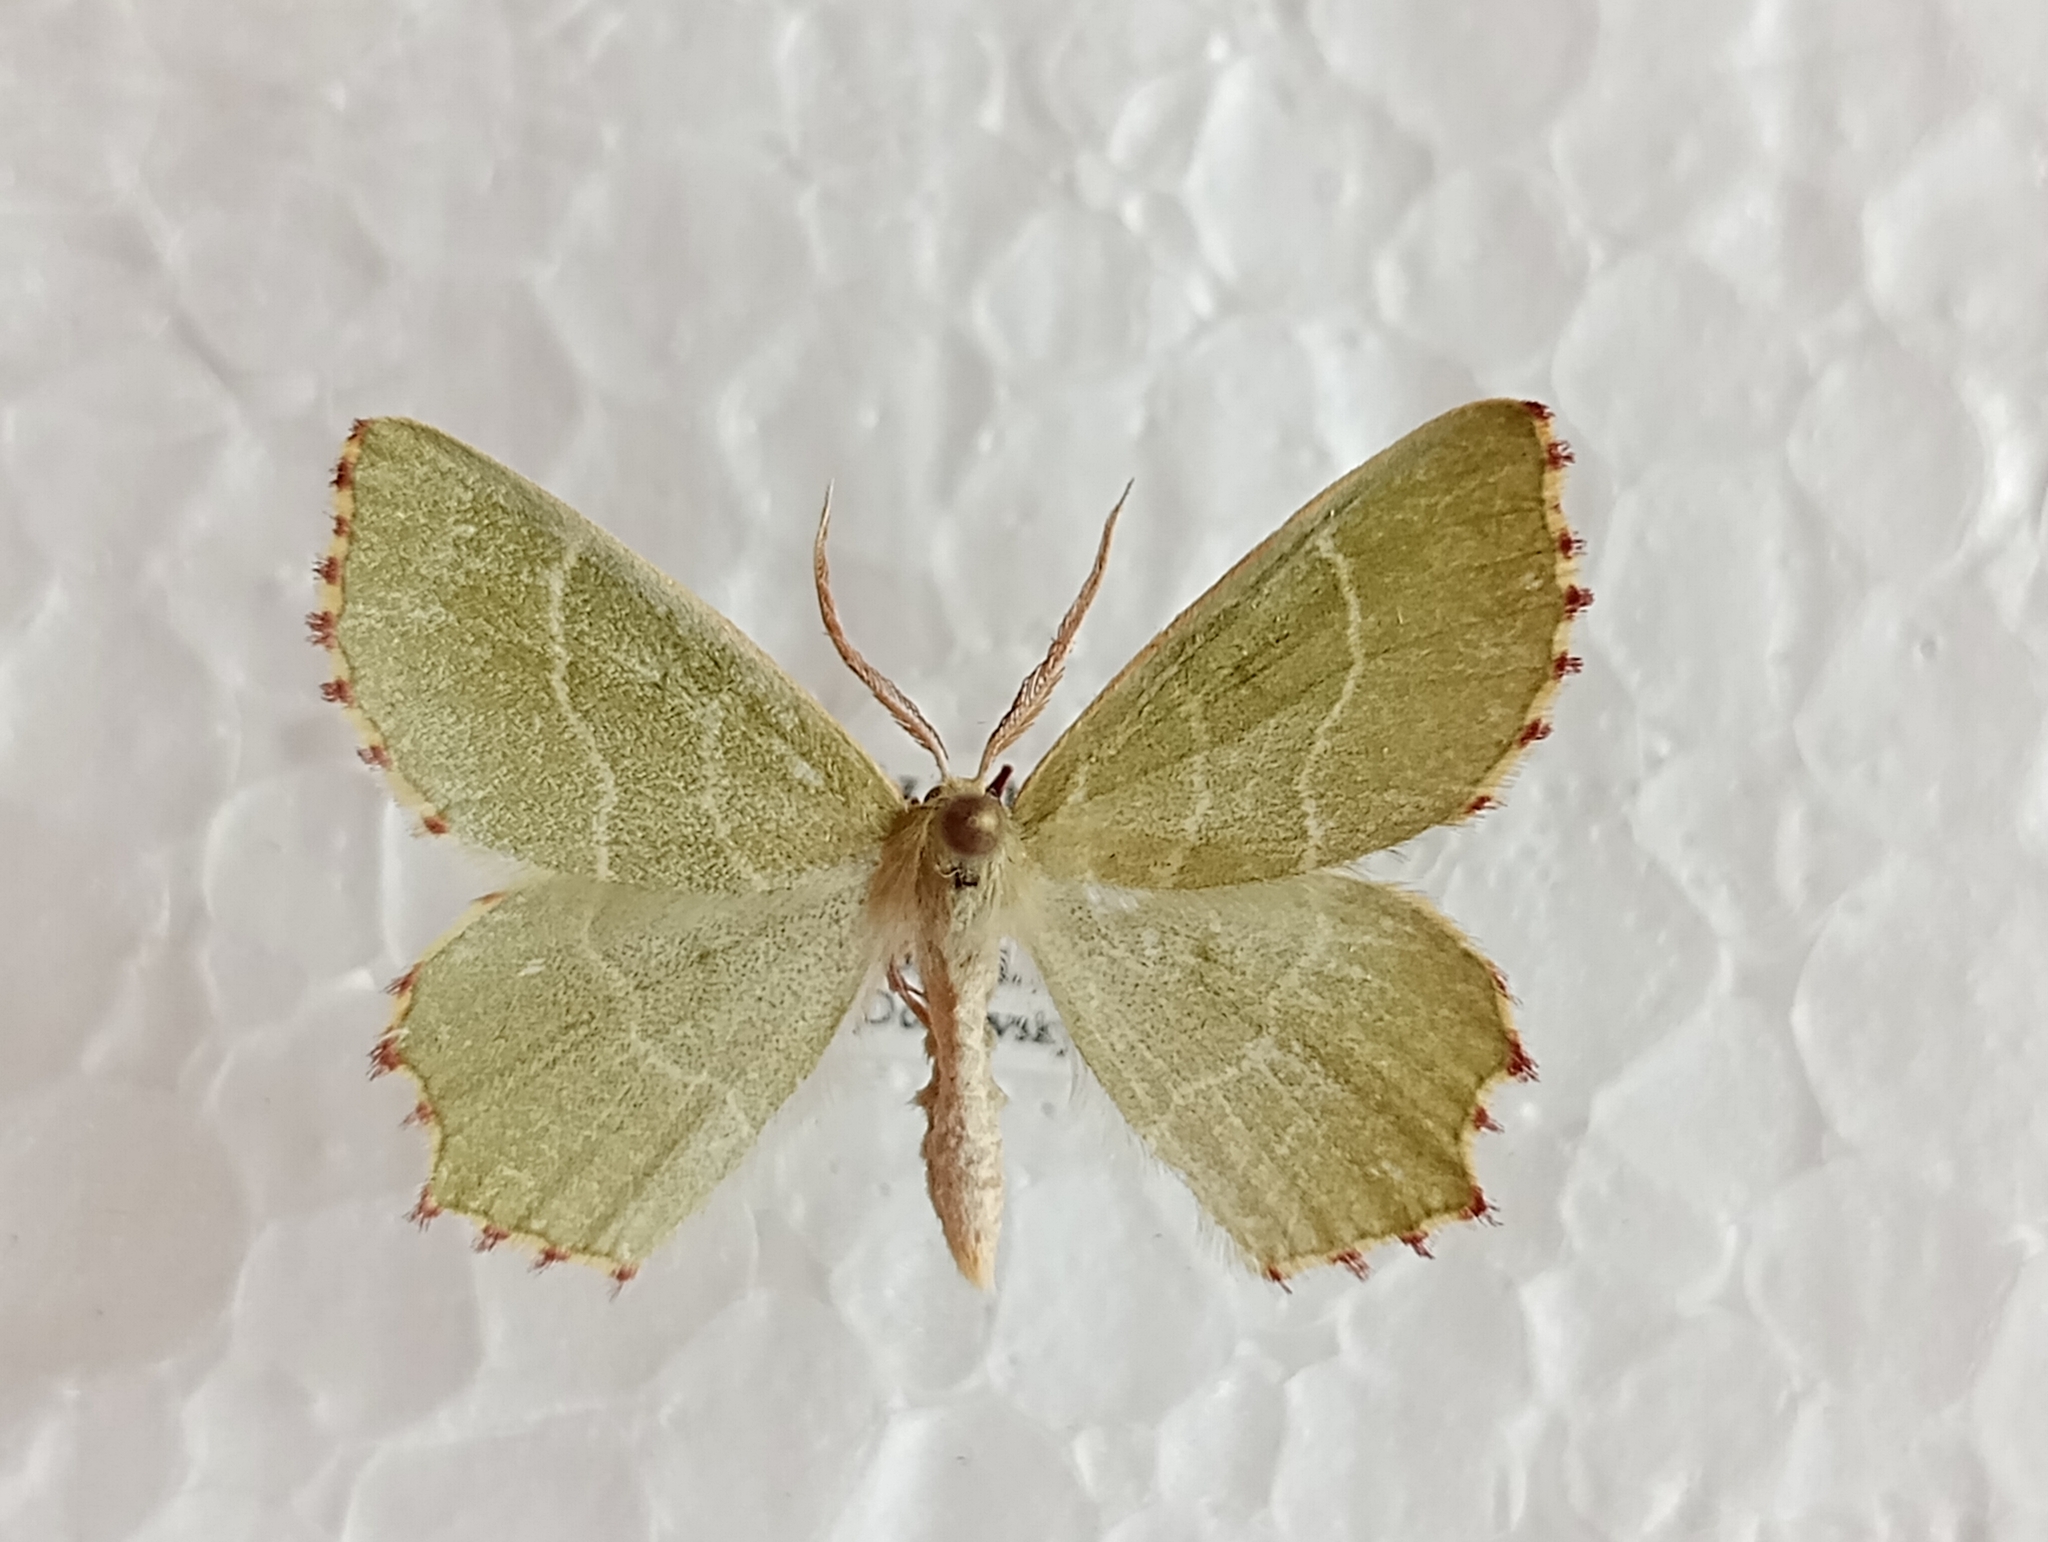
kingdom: Animalia
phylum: Arthropoda
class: Insecta
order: Lepidoptera
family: Geometridae
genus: Thalera
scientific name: Thalera fimbrialis
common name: Sussex emerald
